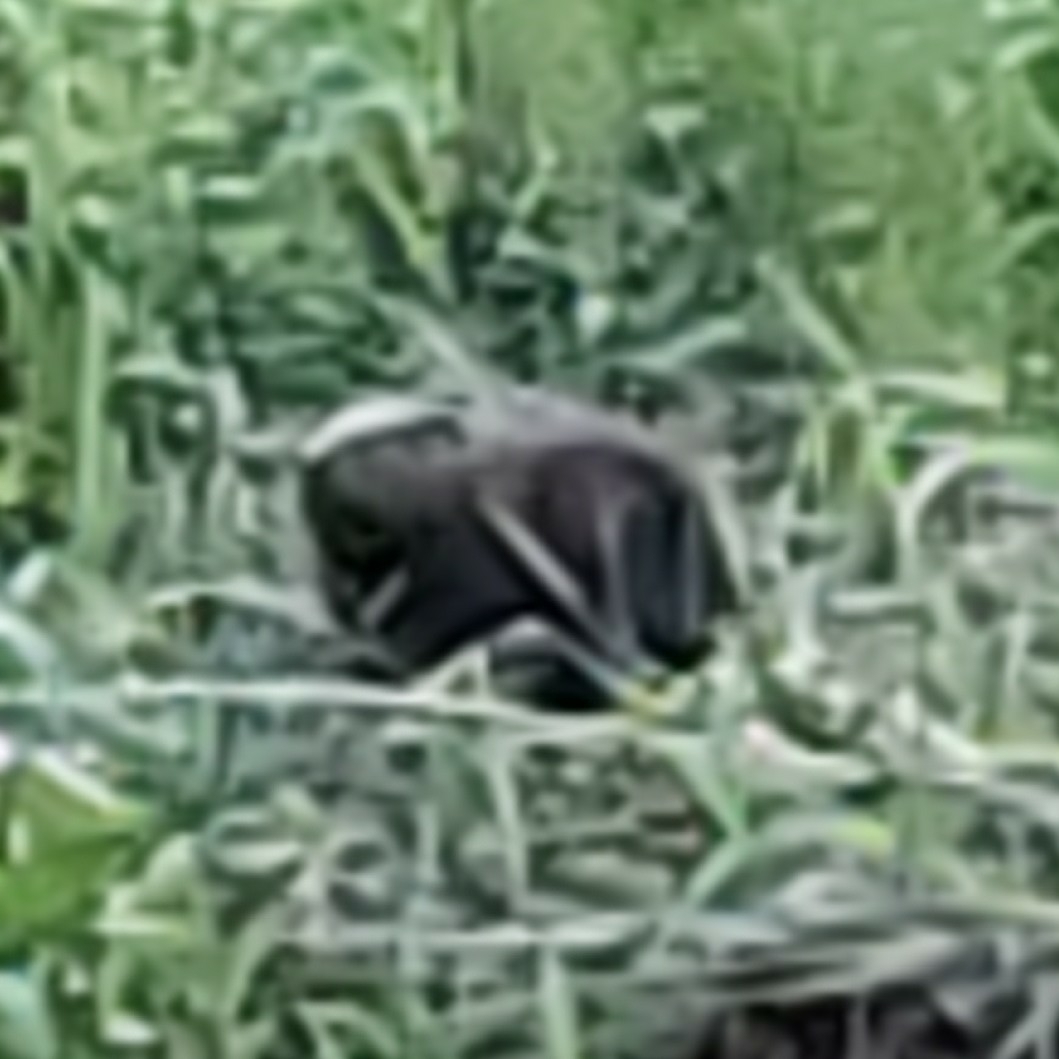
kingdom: Animalia
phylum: Chordata
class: Mammalia
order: Rodentia
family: Castoridae
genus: Castor
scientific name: Castor canadensis
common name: American beaver
